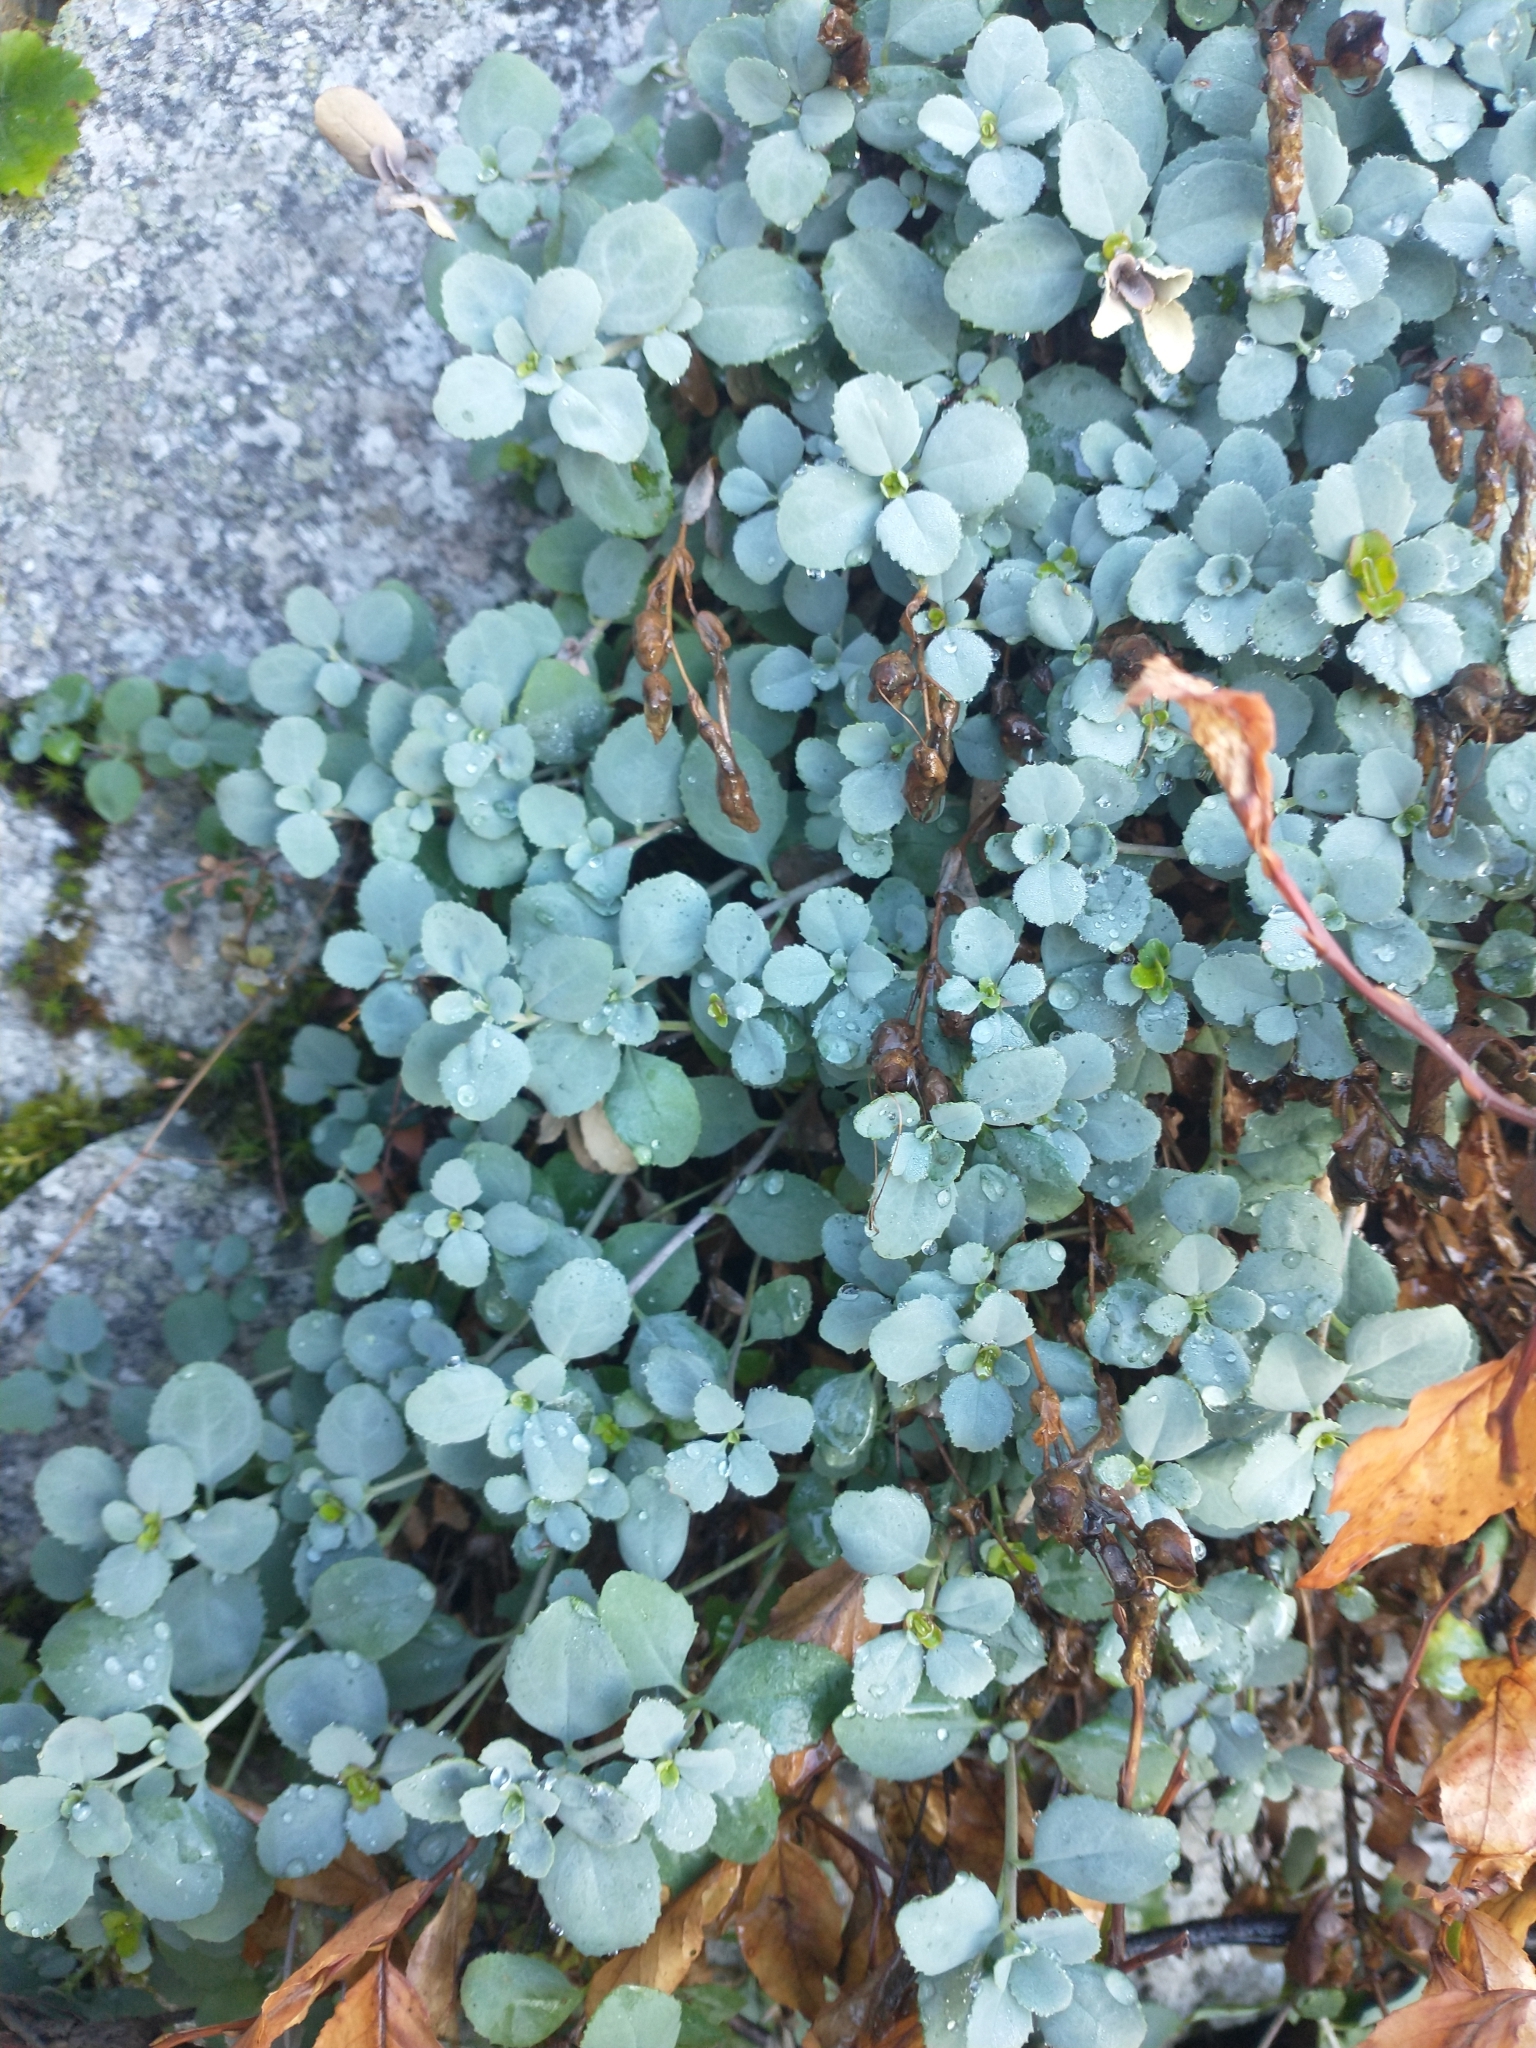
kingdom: Plantae
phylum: Tracheophyta
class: Magnoliopsida
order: Lamiales
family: Plantaginaceae
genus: Penstemon
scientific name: Penstemon rupicola
